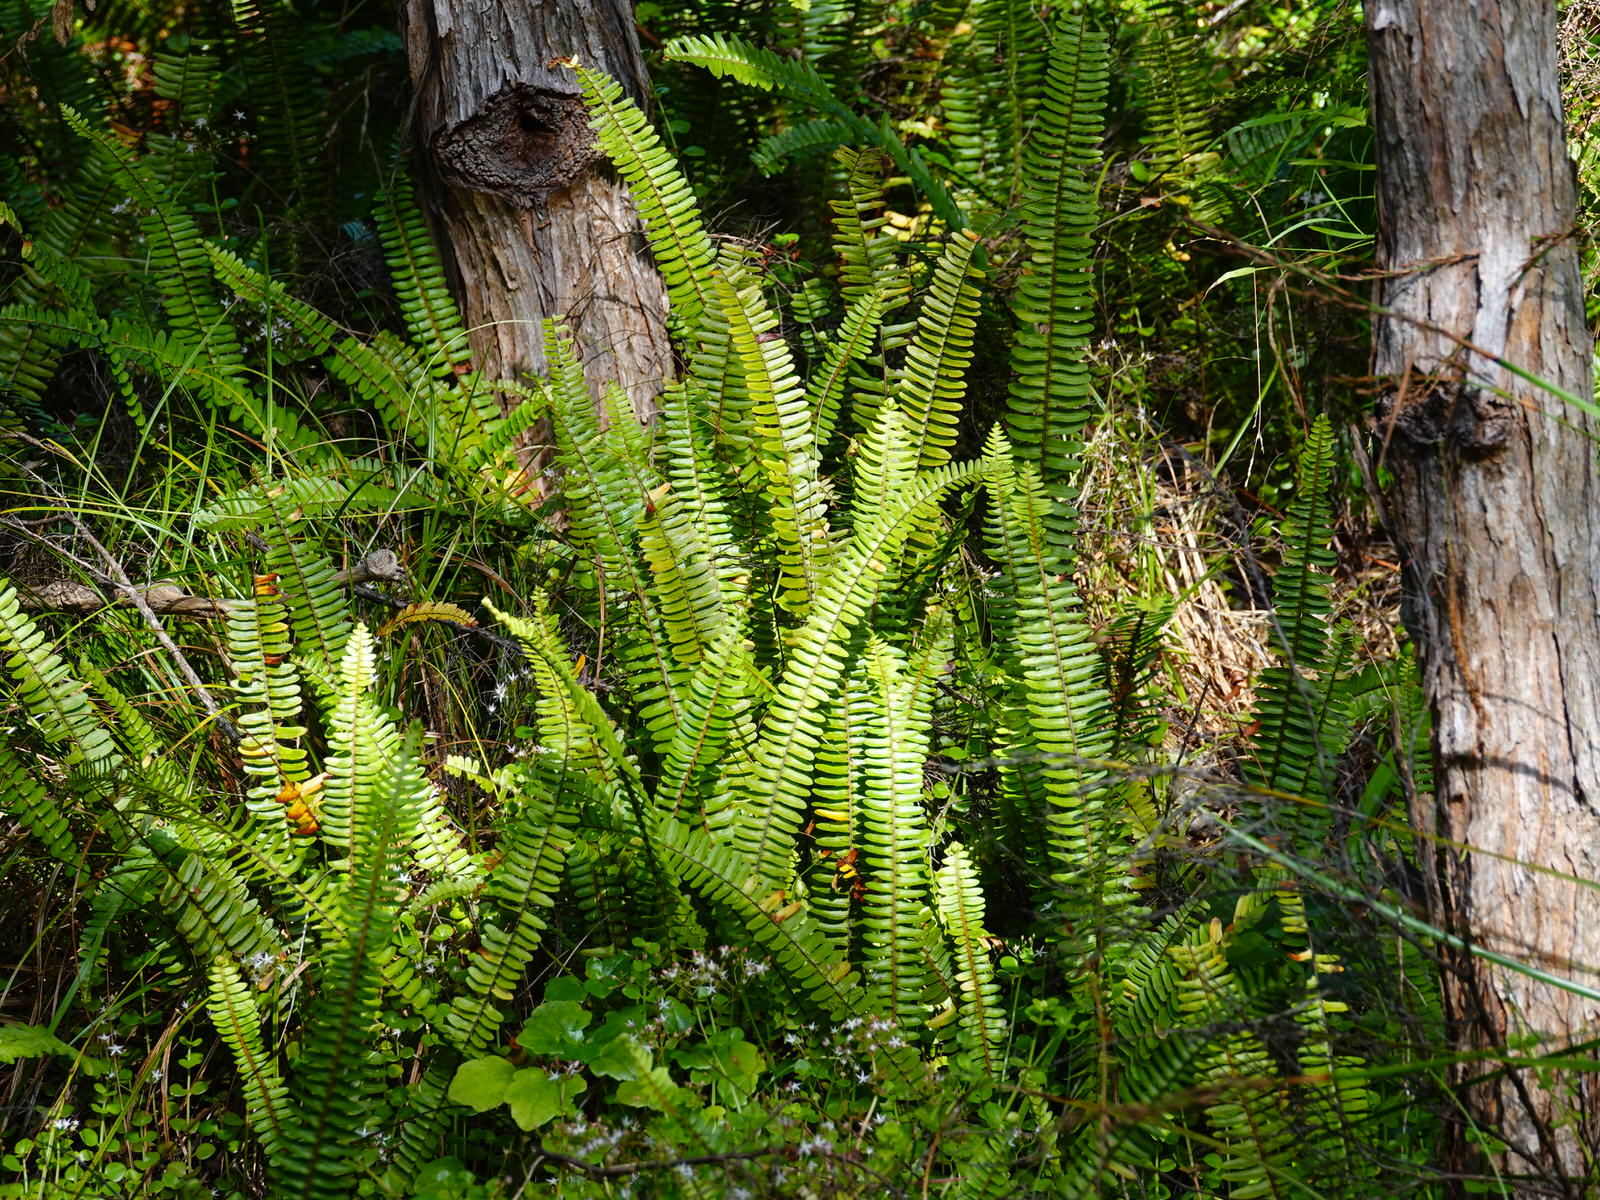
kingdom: Plantae
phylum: Tracheophyta
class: Polypodiopsida
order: Polypodiales
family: Nephrolepidaceae
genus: Nephrolepis
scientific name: Nephrolepis cordifolia
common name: Narrow swordfern
